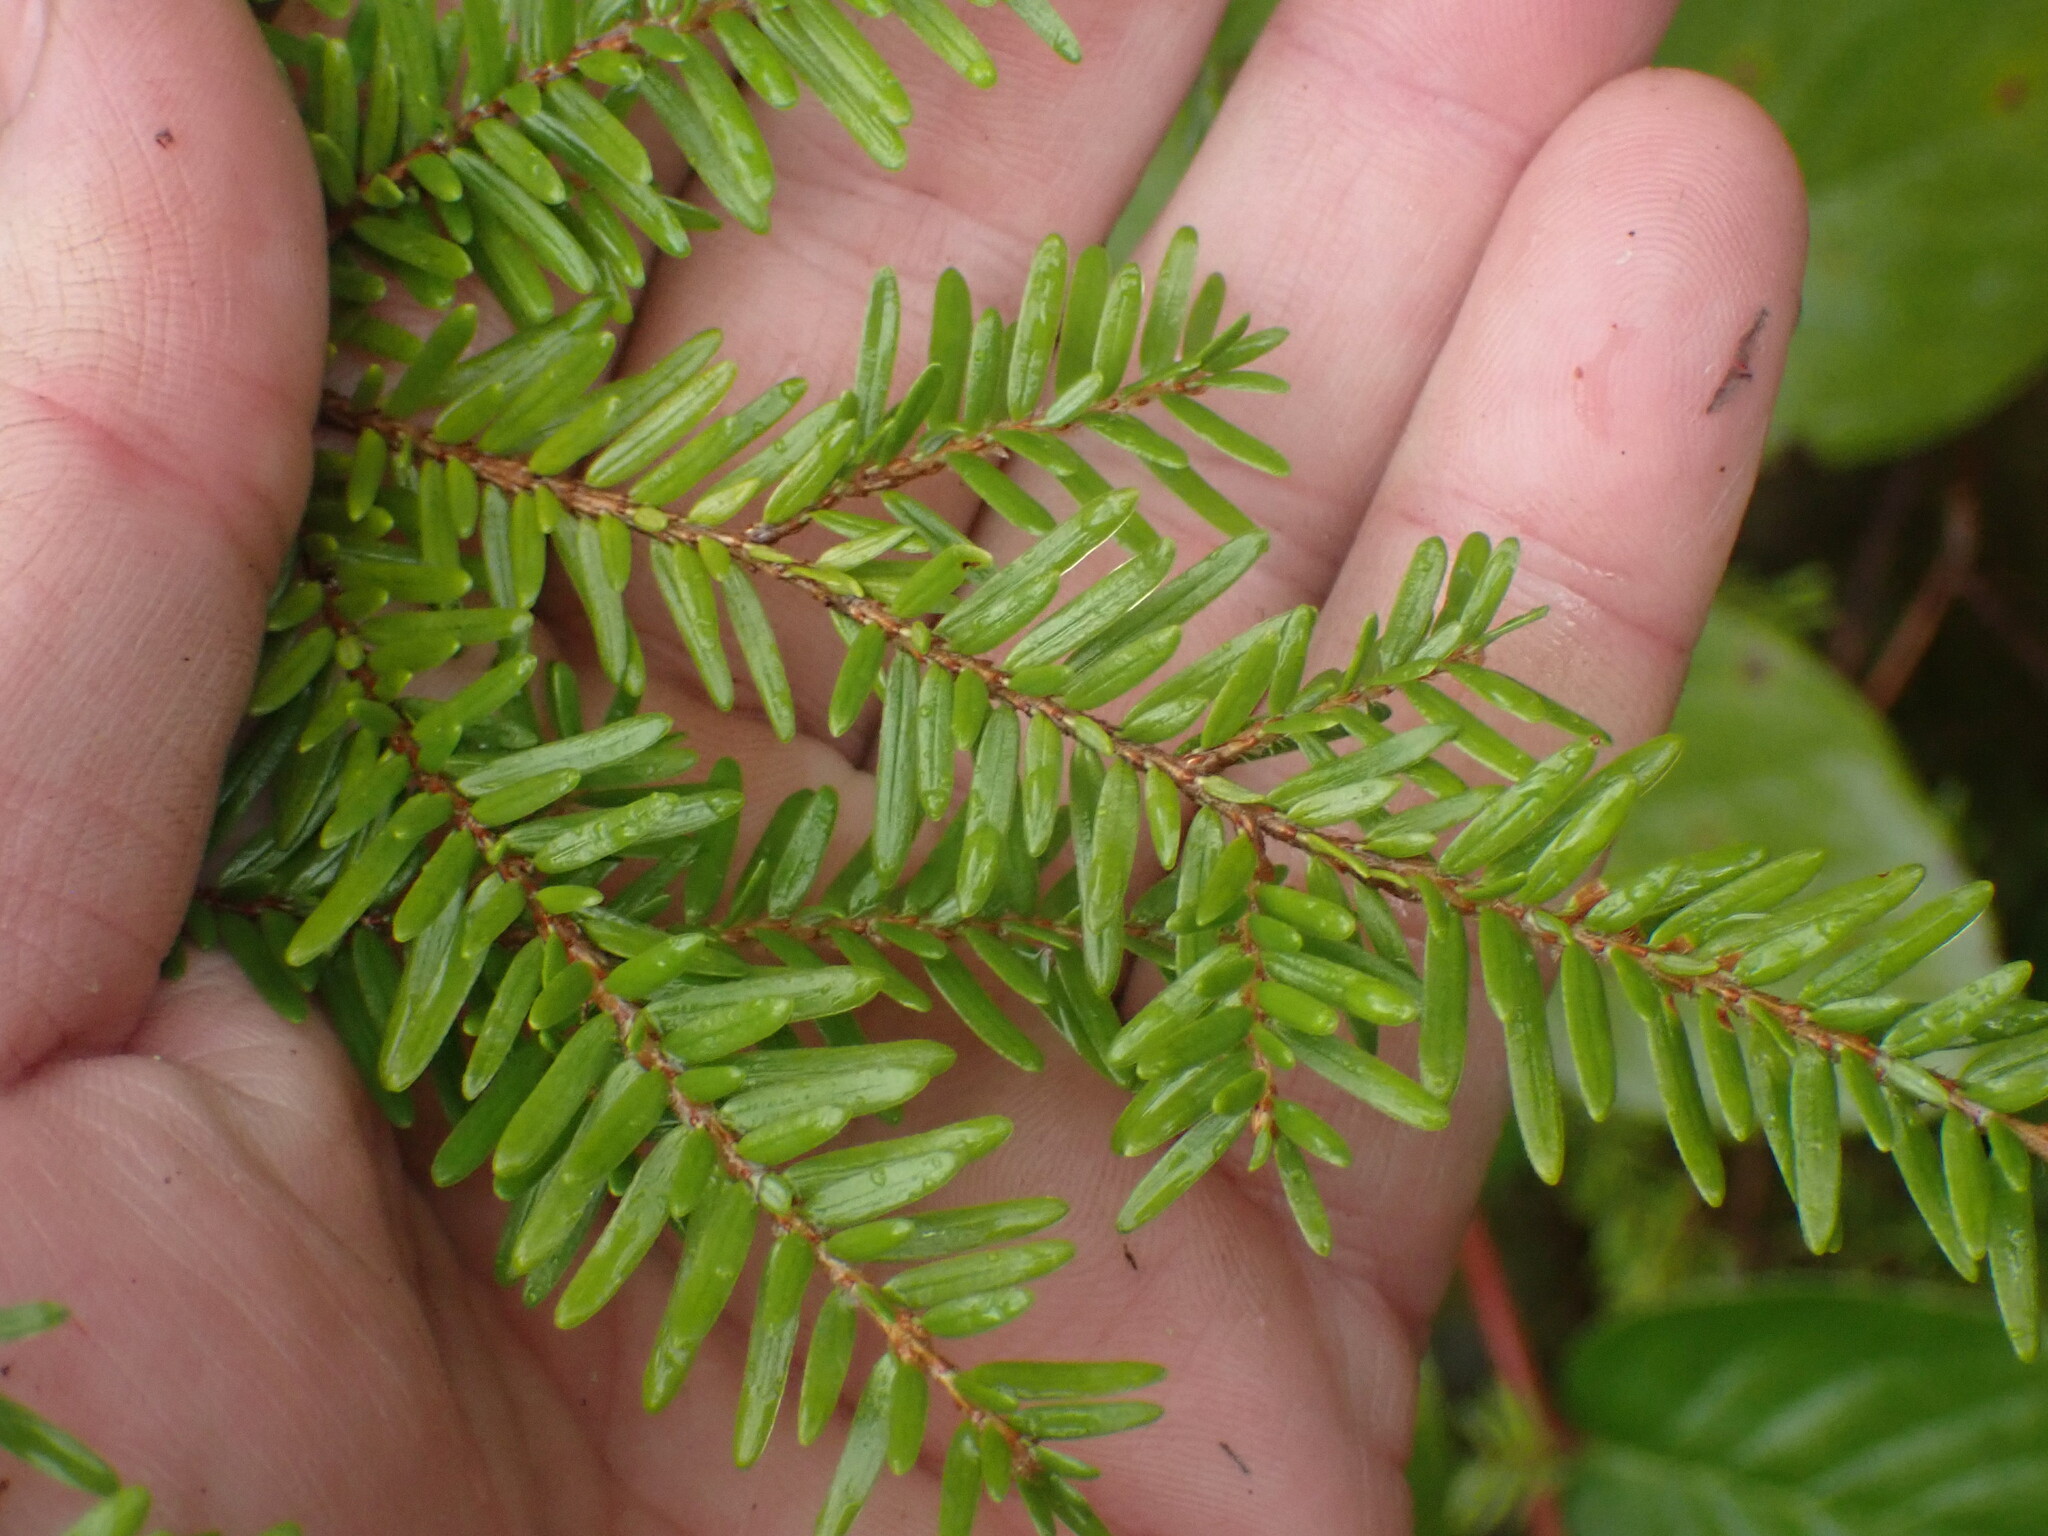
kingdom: Plantae
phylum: Tracheophyta
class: Pinopsida
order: Pinales
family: Pinaceae
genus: Tsuga
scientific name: Tsuga heterophylla
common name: Western hemlock
